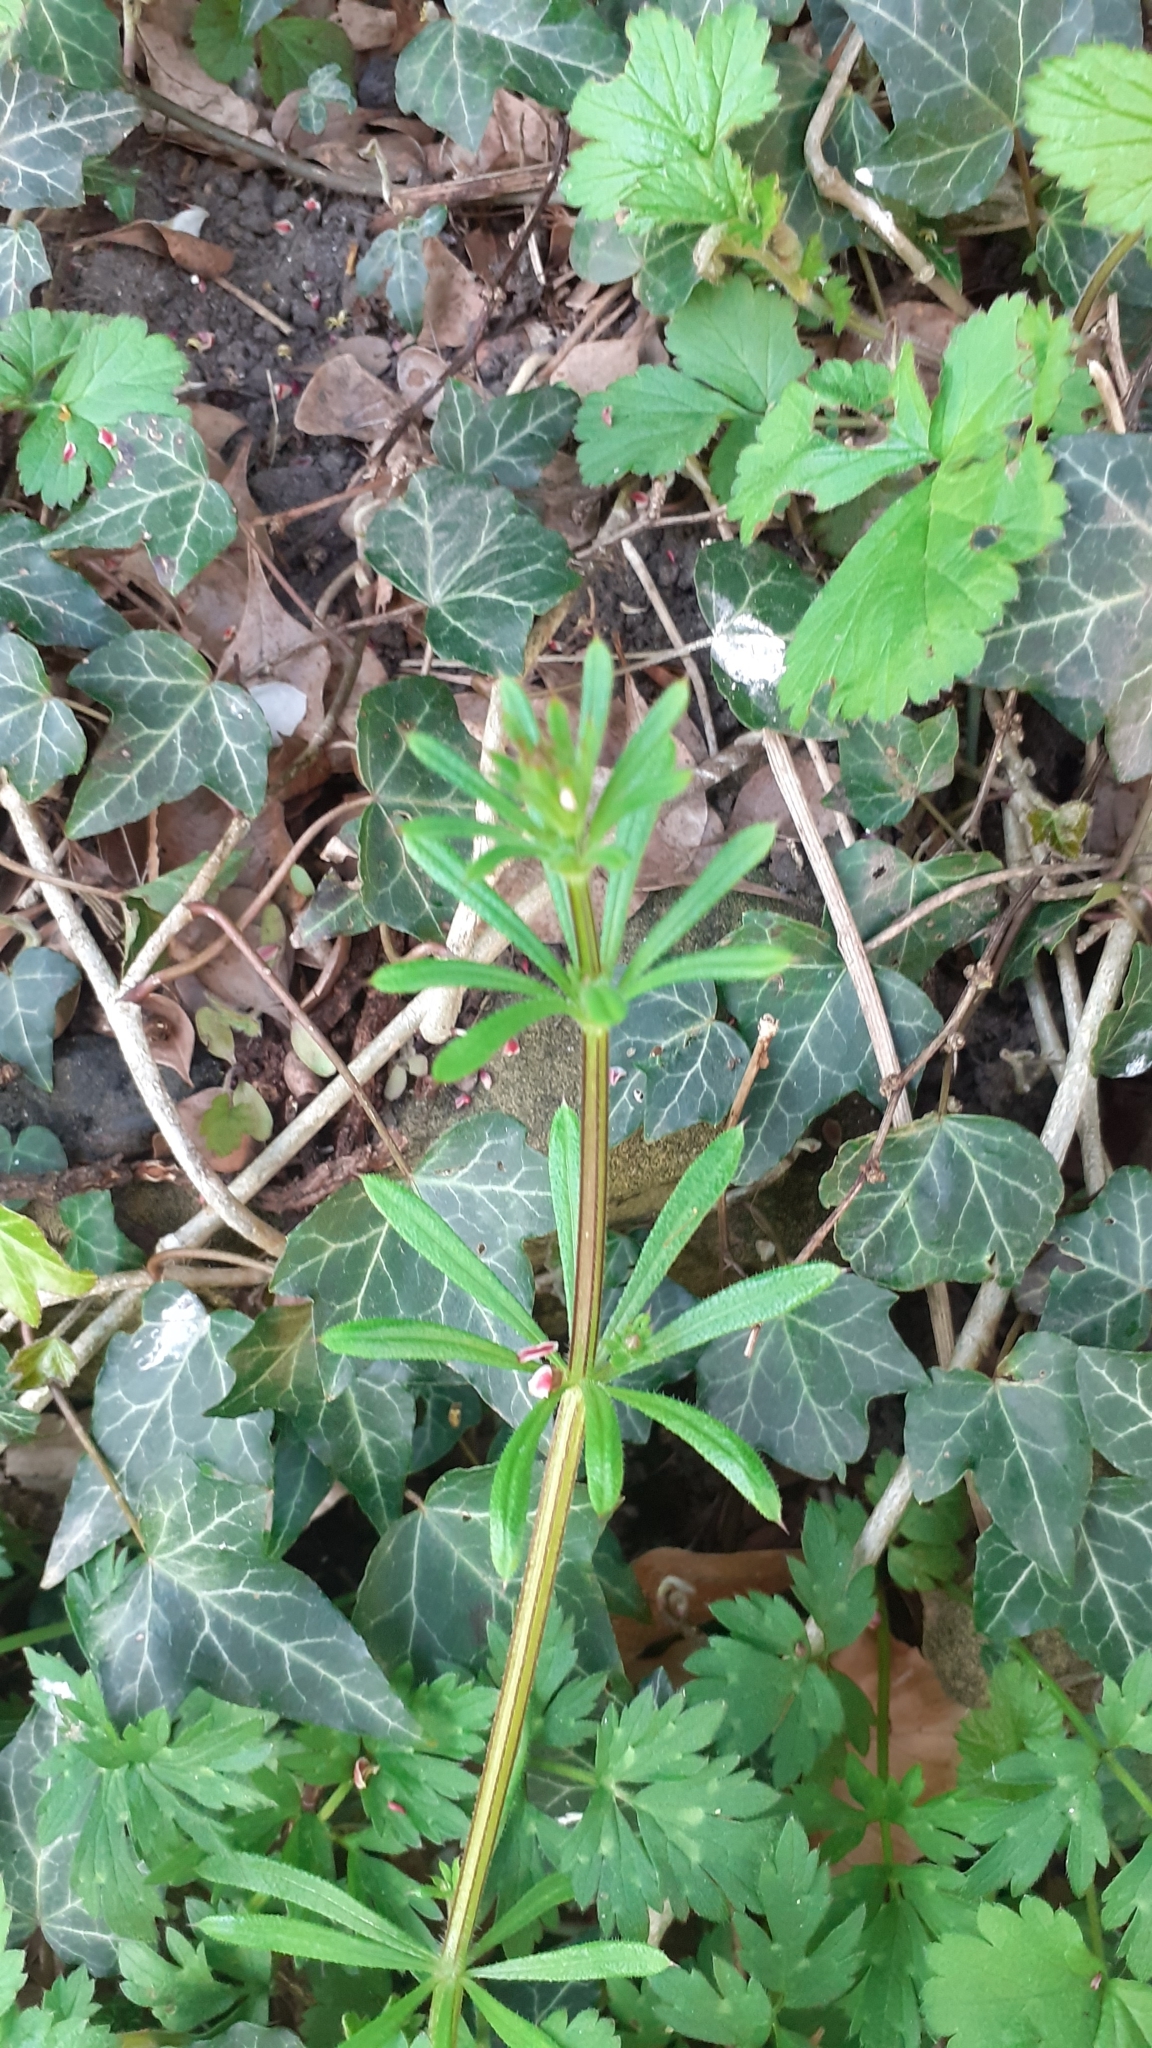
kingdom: Plantae
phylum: Tracheophyta
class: Magnoliopsida
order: Gentianales
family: Rubiaceae
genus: Galium
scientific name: Galium aparine
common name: Cleavers
